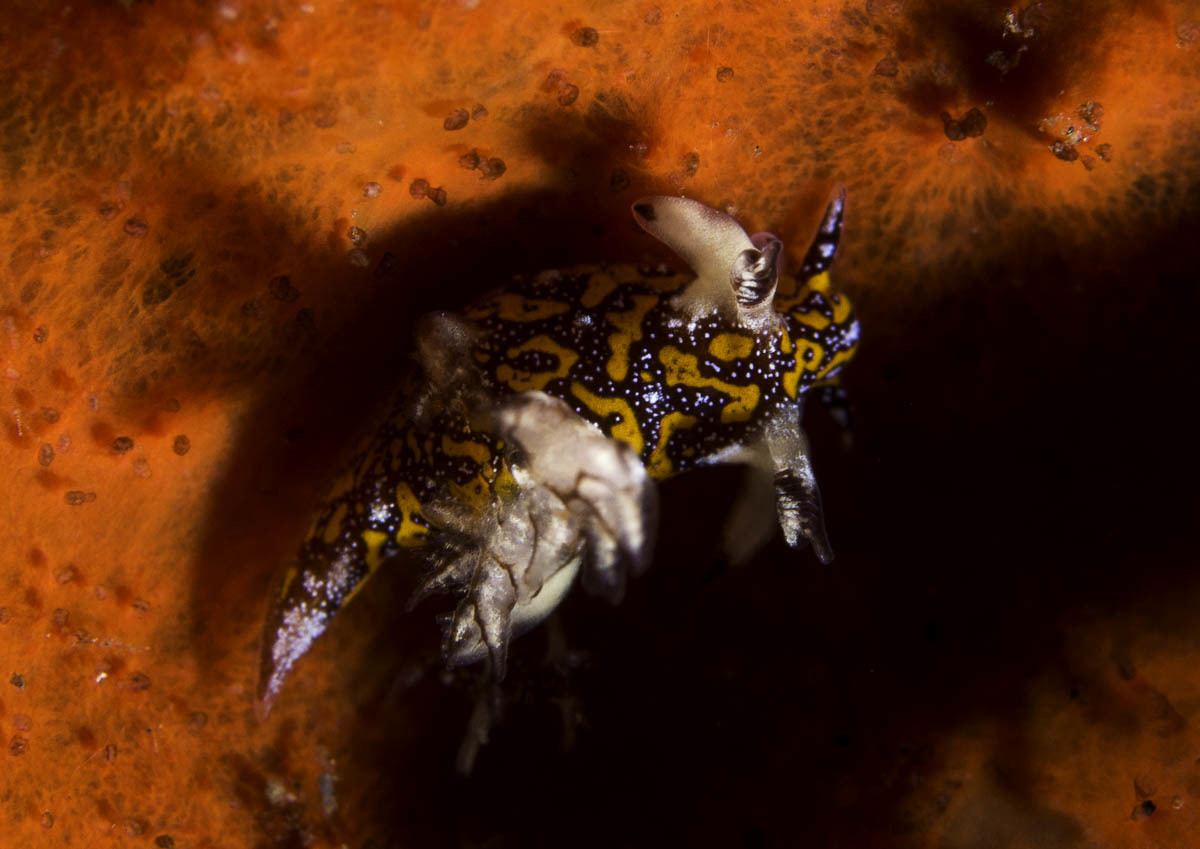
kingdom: Animalia
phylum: Mollusca
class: Gastropoda
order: Nudibranchia
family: Goniodorididae
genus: Trapania
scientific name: Trapania miltabrancha
